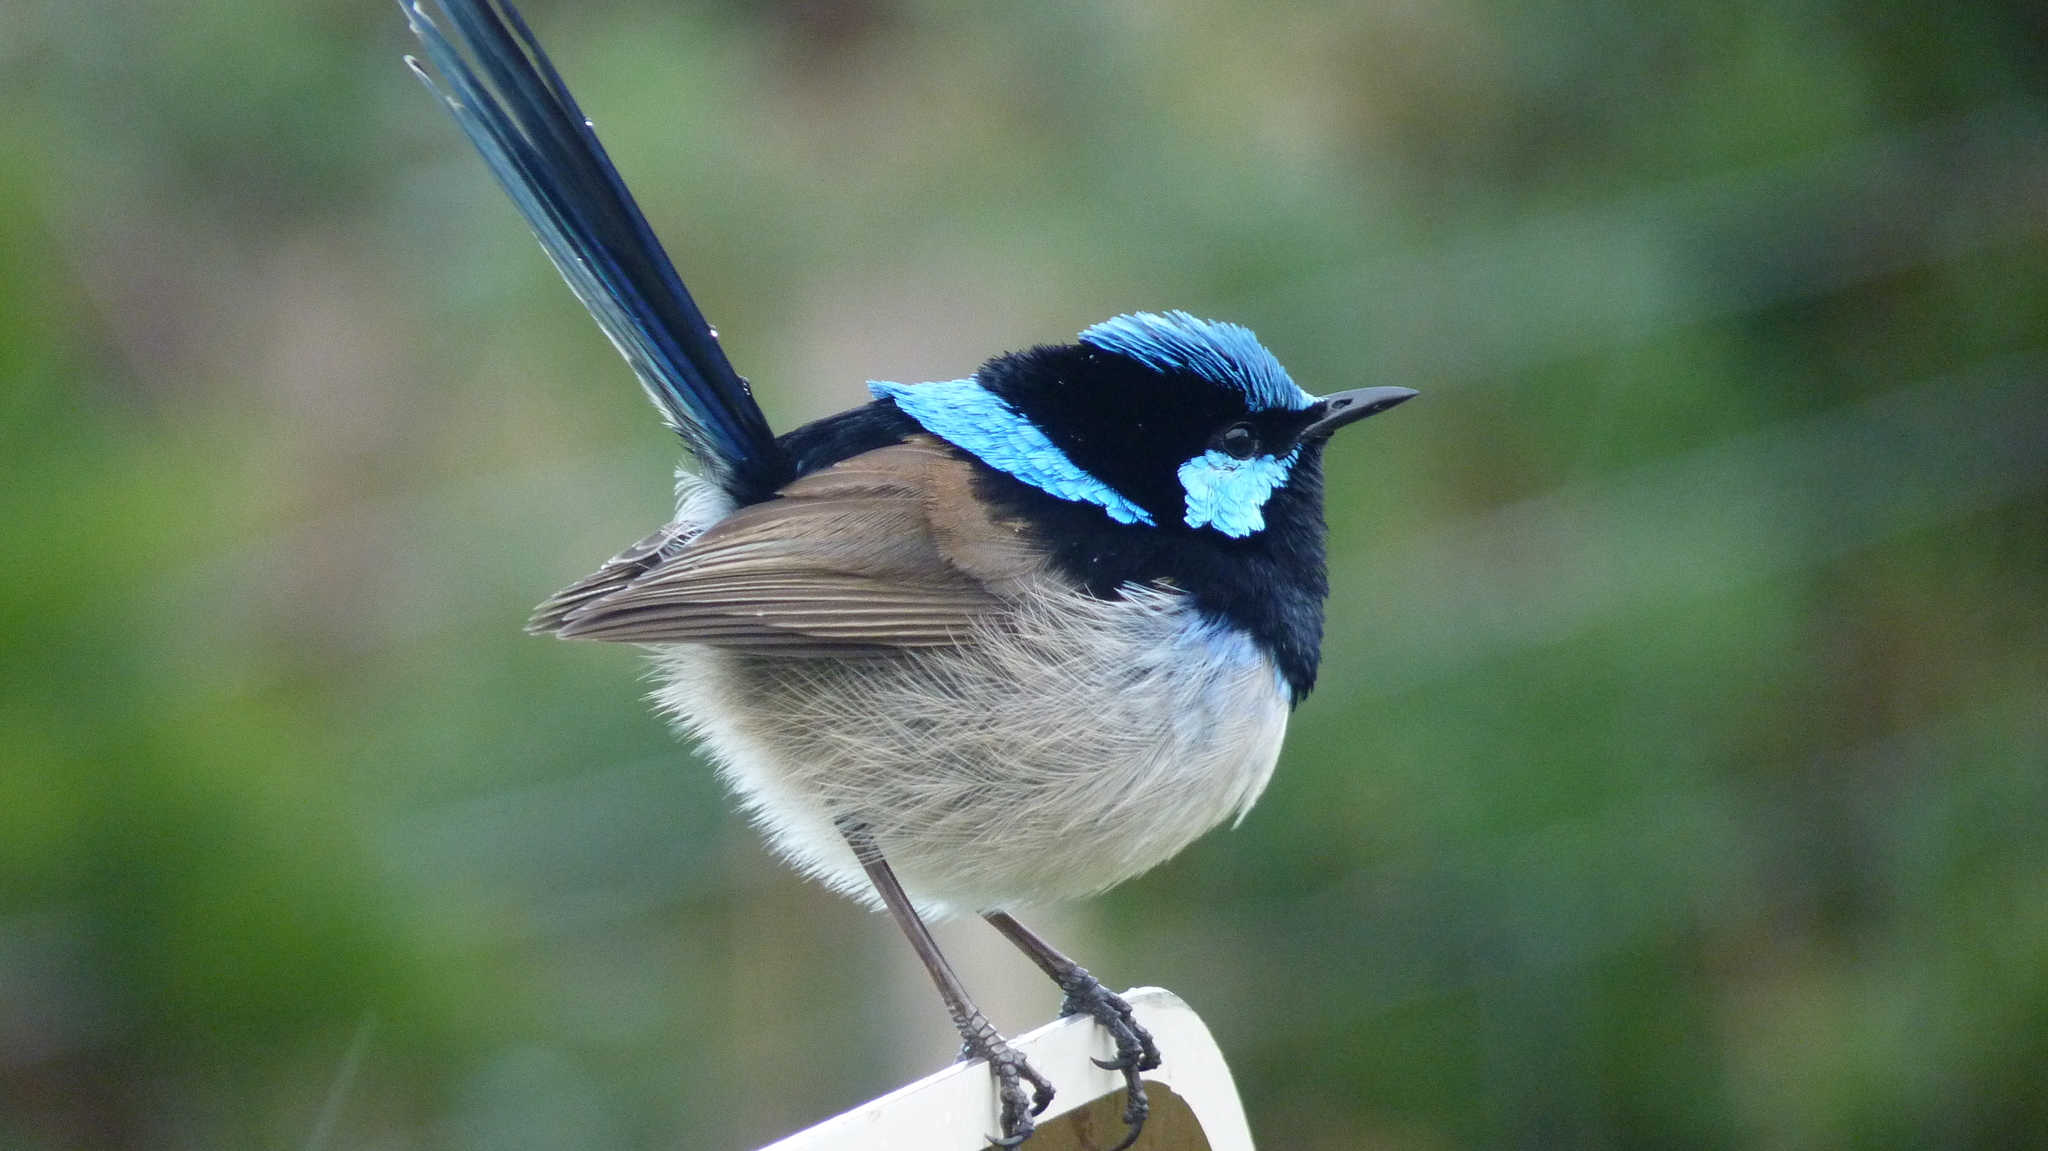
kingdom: Animalia
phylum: Chordata
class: Aves
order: Passeriformes
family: Maluridae
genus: Malurus
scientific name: Malurus cyaneus
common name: Superb fairywren
